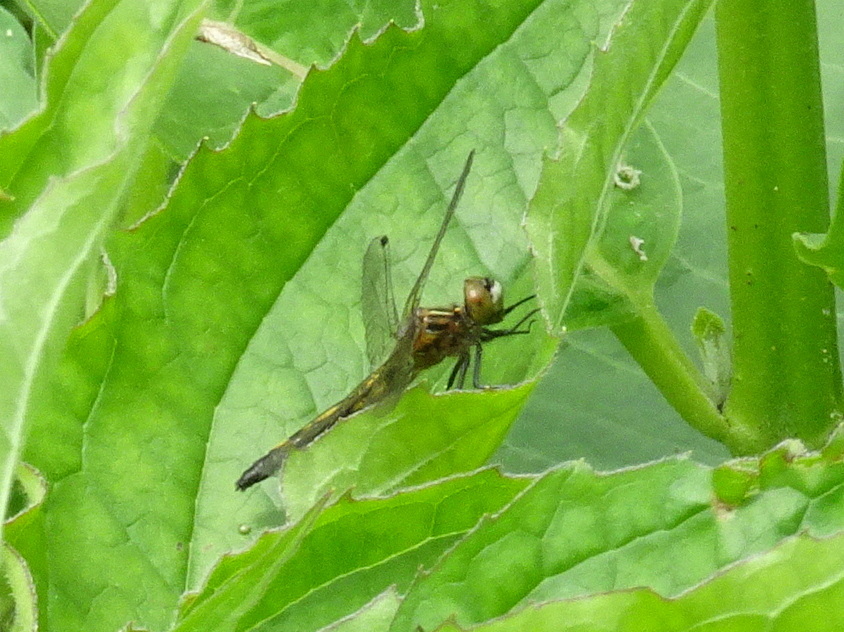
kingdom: Animalia
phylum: Arthropoda
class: Insecta
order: Odonata
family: Libellulidae
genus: Leucorrhinia
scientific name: Leucorrhinia intacta
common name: Dot-tailed whiteface
